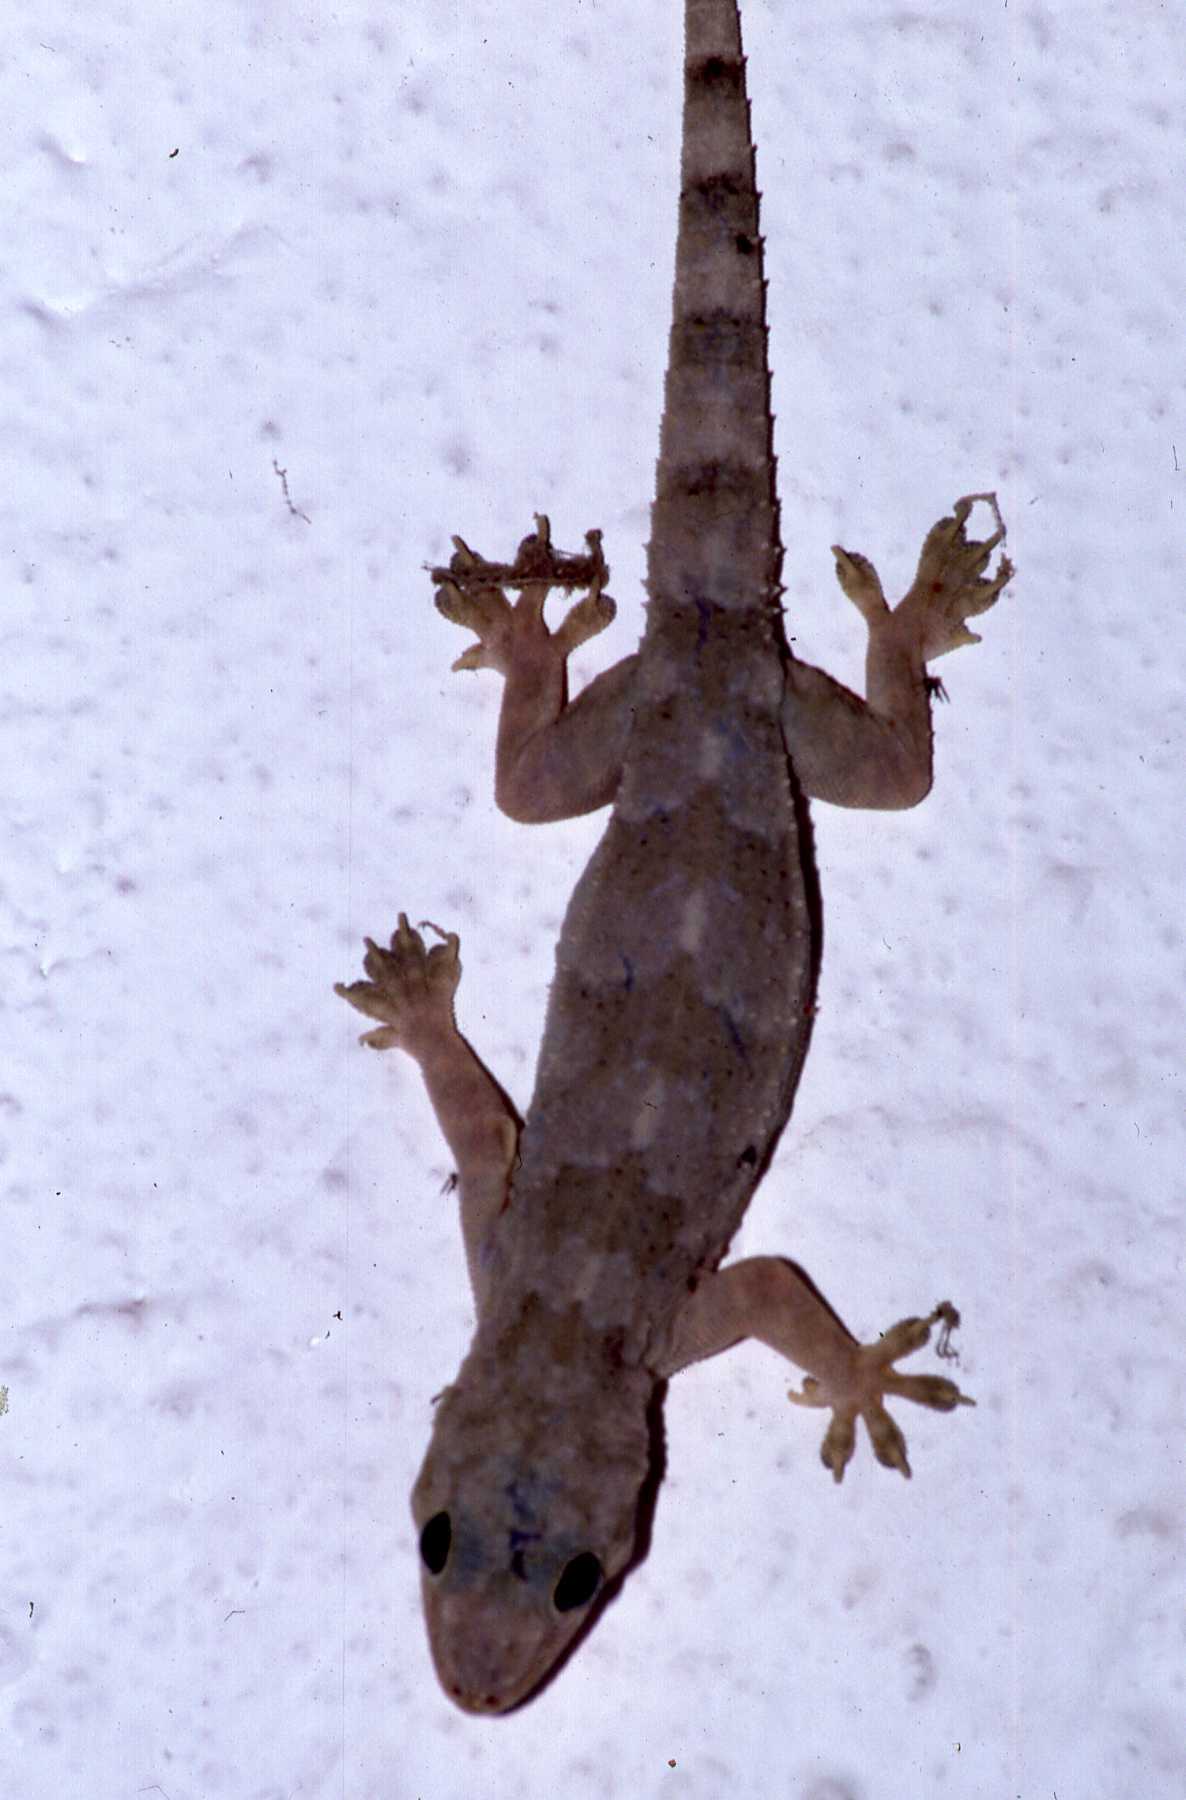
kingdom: Animalia
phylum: Chordata
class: Squamata
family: Gekkonidae
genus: Hemidactylus
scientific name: Hemidactylus mabouia
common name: House gecko
